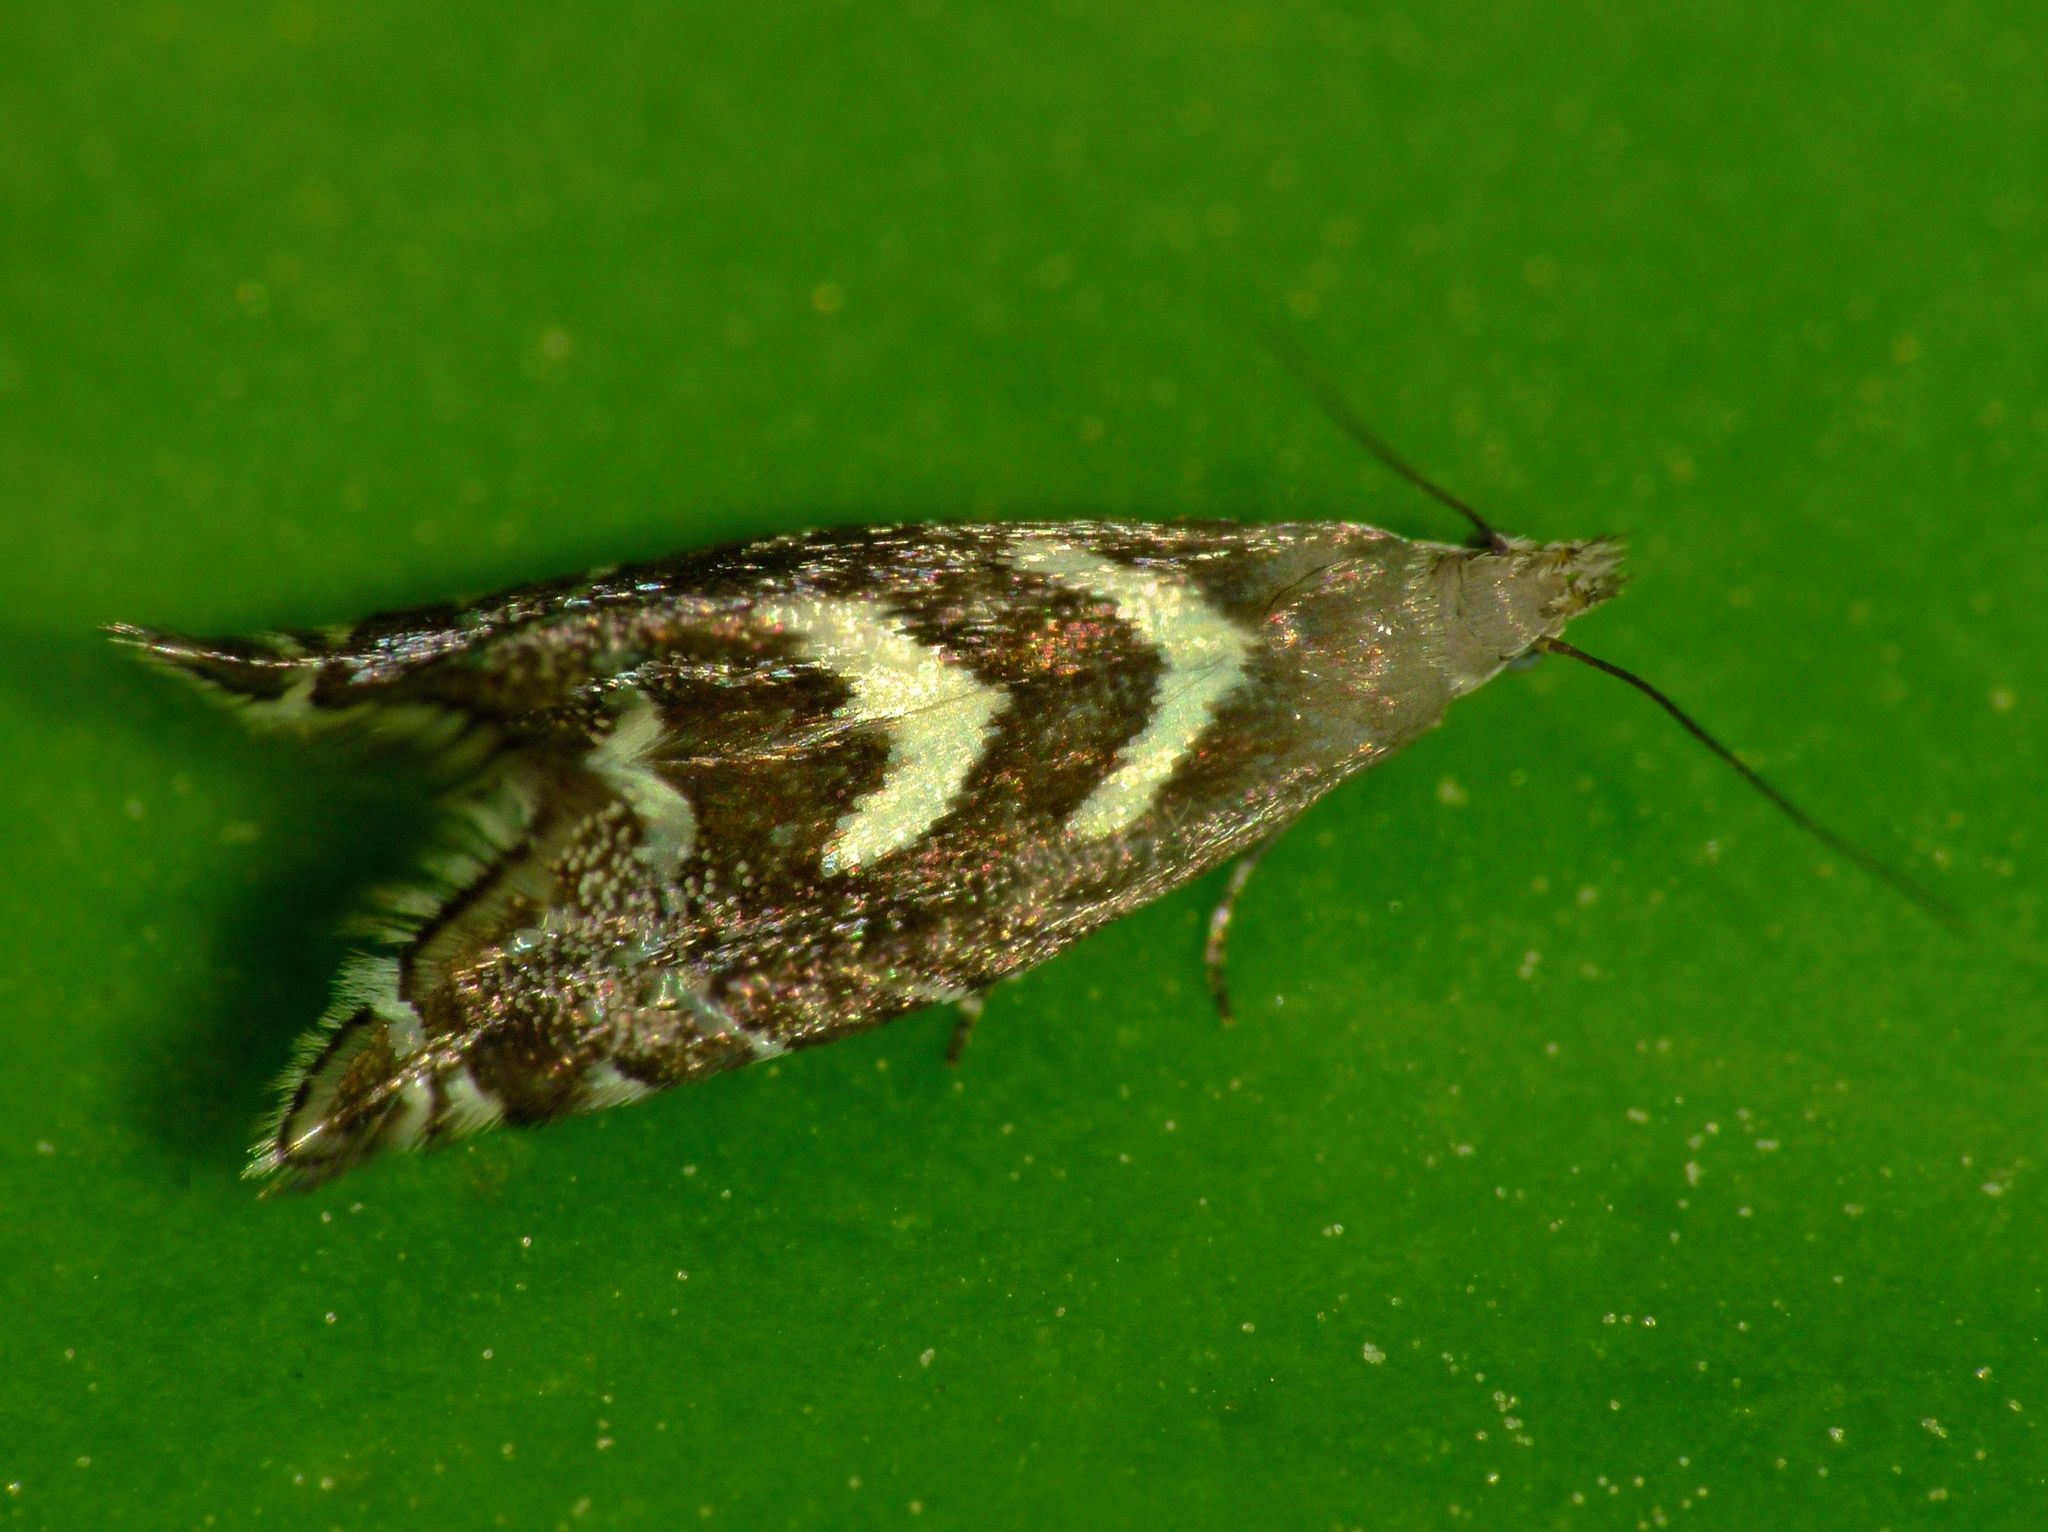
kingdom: Animalia
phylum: Arthropoda
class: Insecta
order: Lepidoptera
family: Glyphipterigidae
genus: Glyphipterix
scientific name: Glyphipterix asteronota
